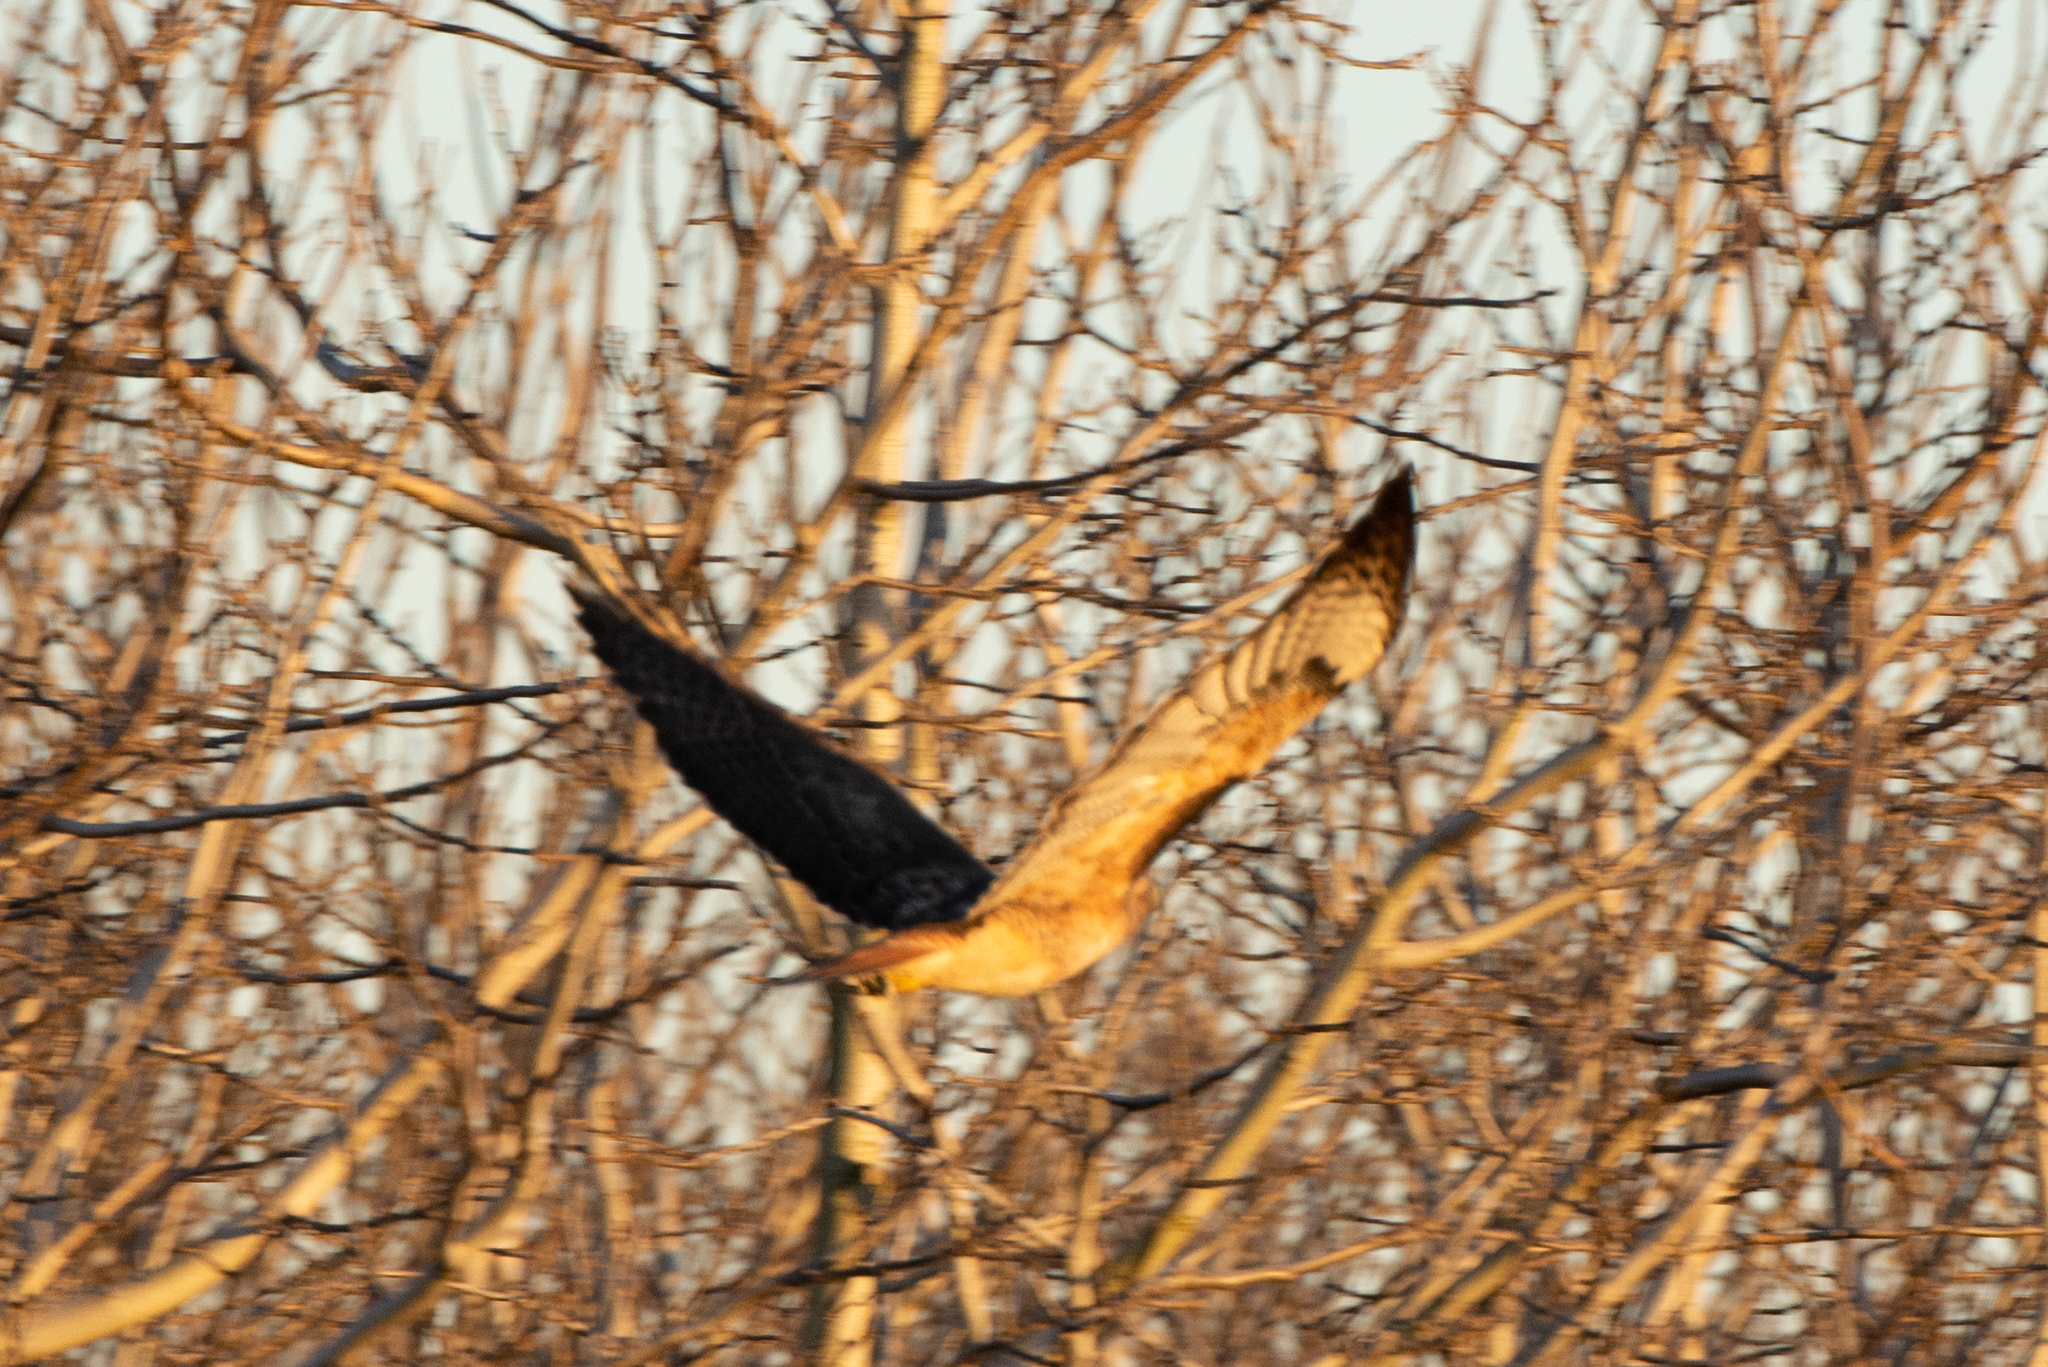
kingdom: Animalia
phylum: Chordata
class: Aves
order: Accipitriformes
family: Accipitridae
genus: Buteo
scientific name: Buteo jamaicensis
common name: Red-tailed hawk
